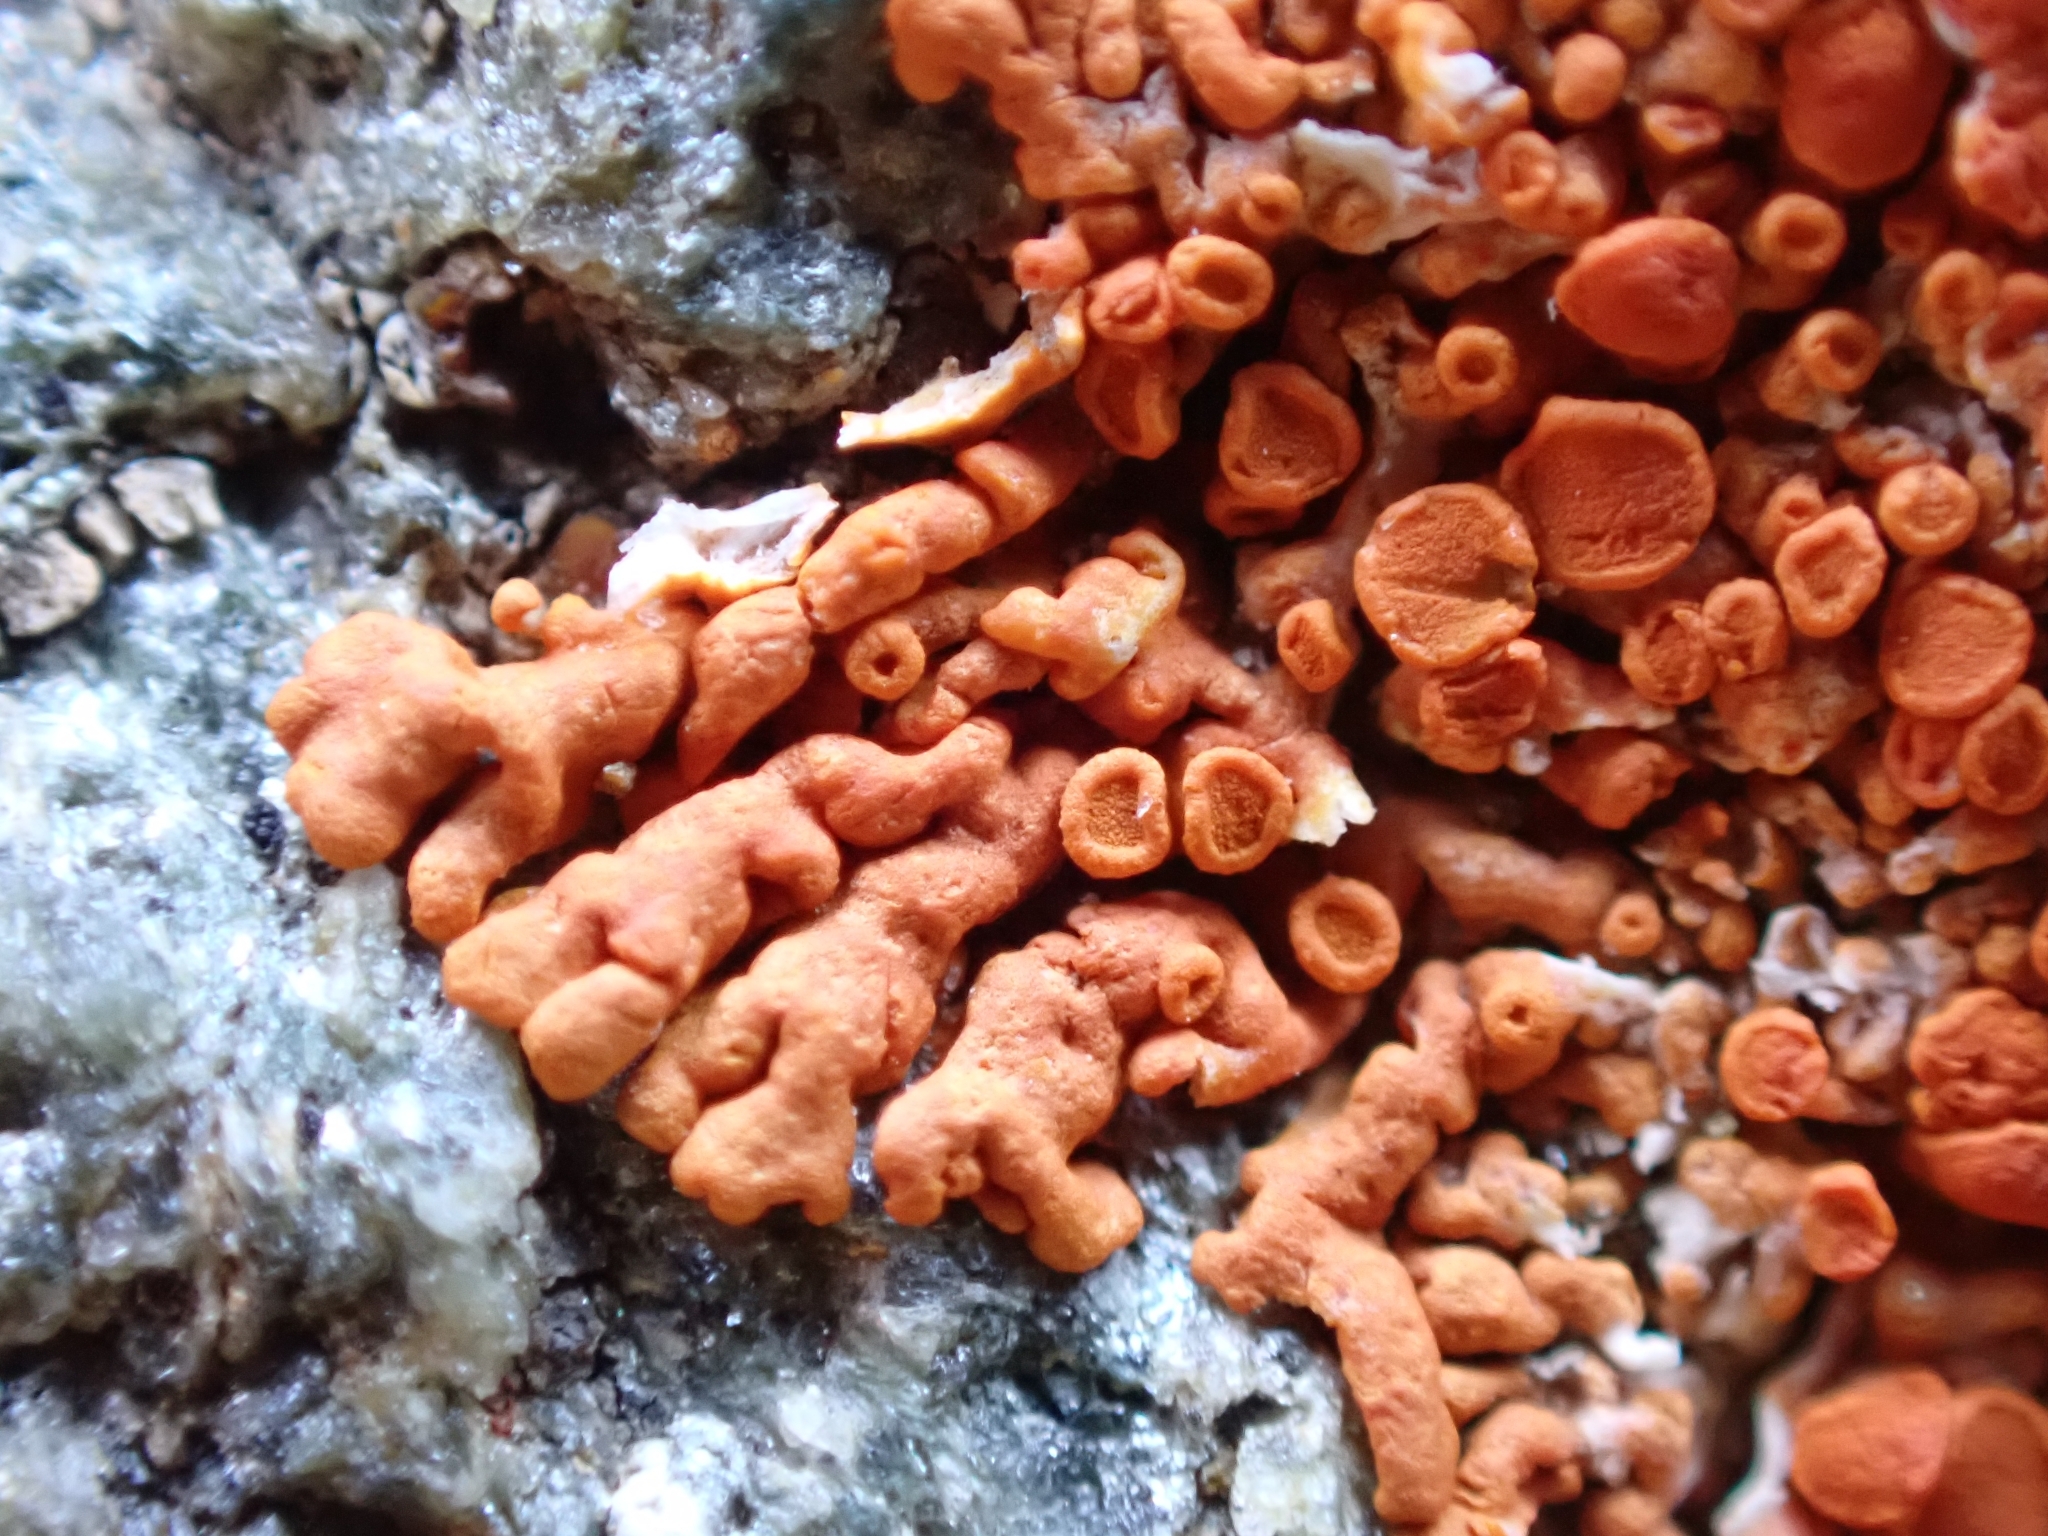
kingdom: Fungi
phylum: Ascomycota
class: Lecanoromycetes
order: Teloschistales
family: Teloschistaceae
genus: Xanthoria
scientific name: Xanthoria elegans
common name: Elegant sunburst lichen
